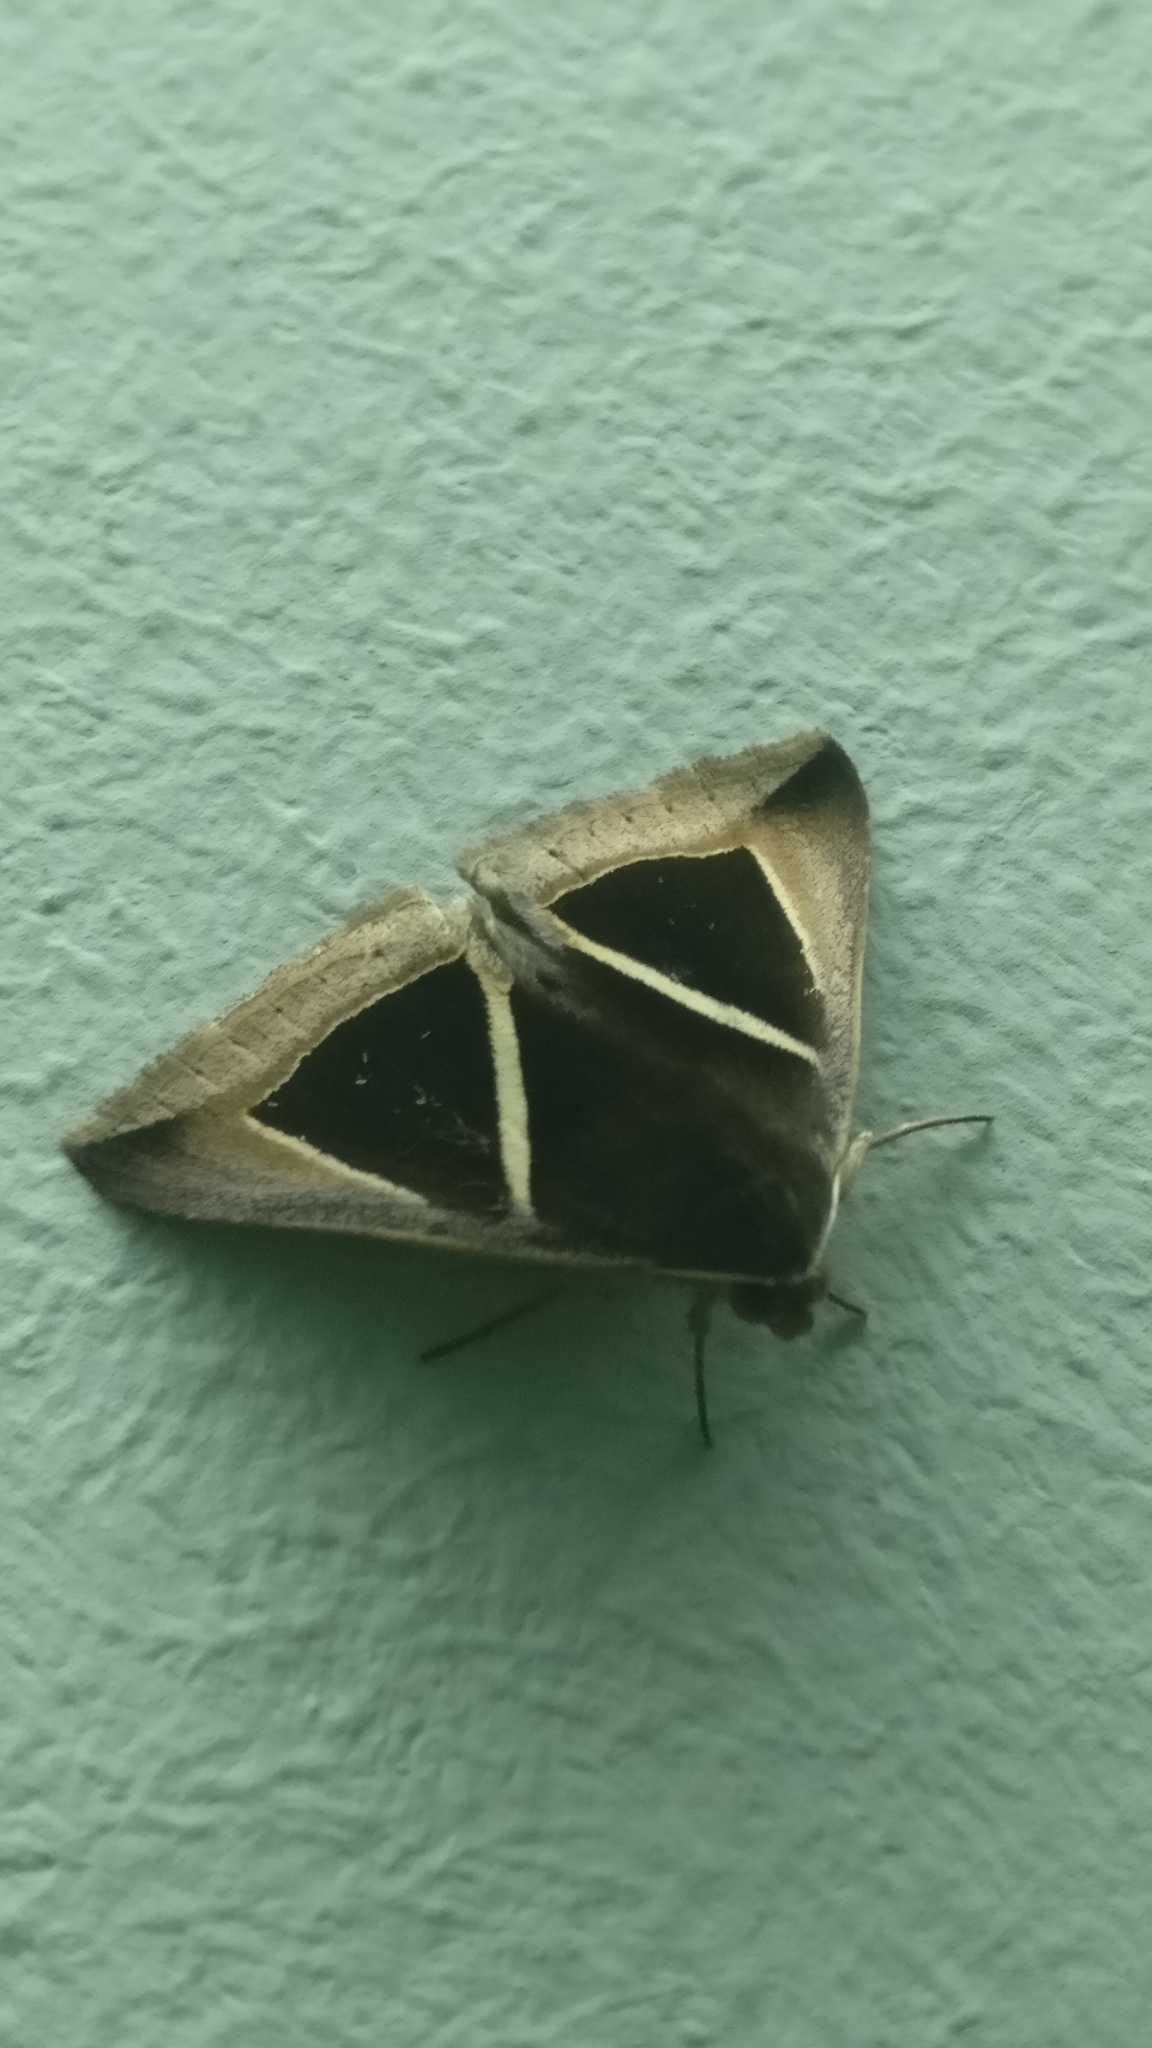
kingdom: Animalia
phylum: Arthropoda
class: Insecta
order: Lepidoptera
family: Erebidae
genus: Chalciope
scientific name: Chalciope mygdon
